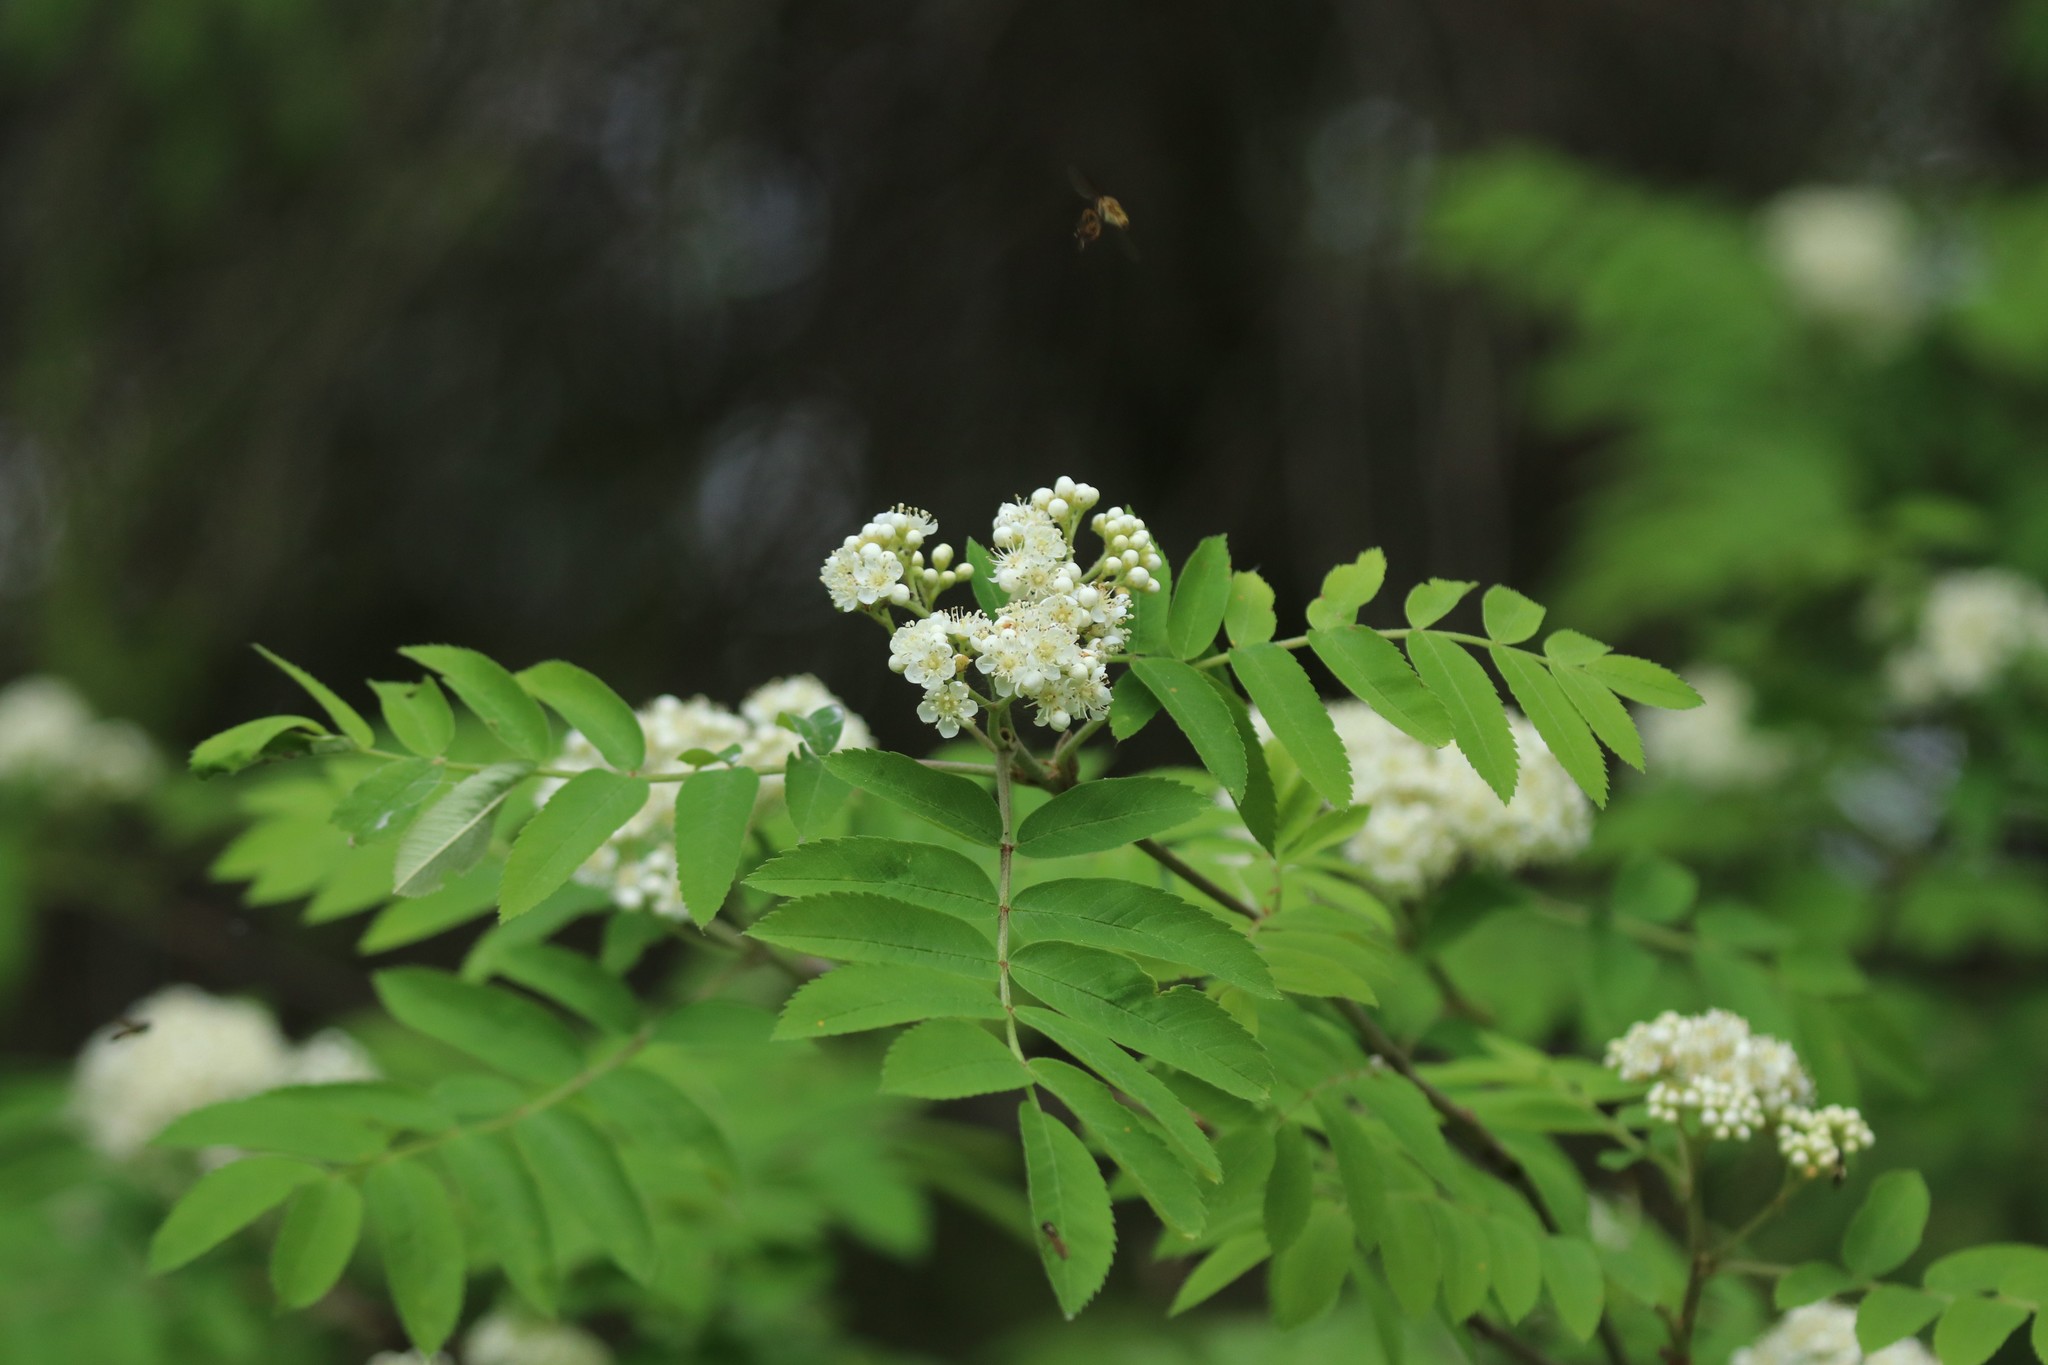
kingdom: Plantae
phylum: Tracheophyta
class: Magnoliopsida
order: Rosales
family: Rosaceae
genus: Sorbus
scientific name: Sorbus aucuparia
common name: Rowan
